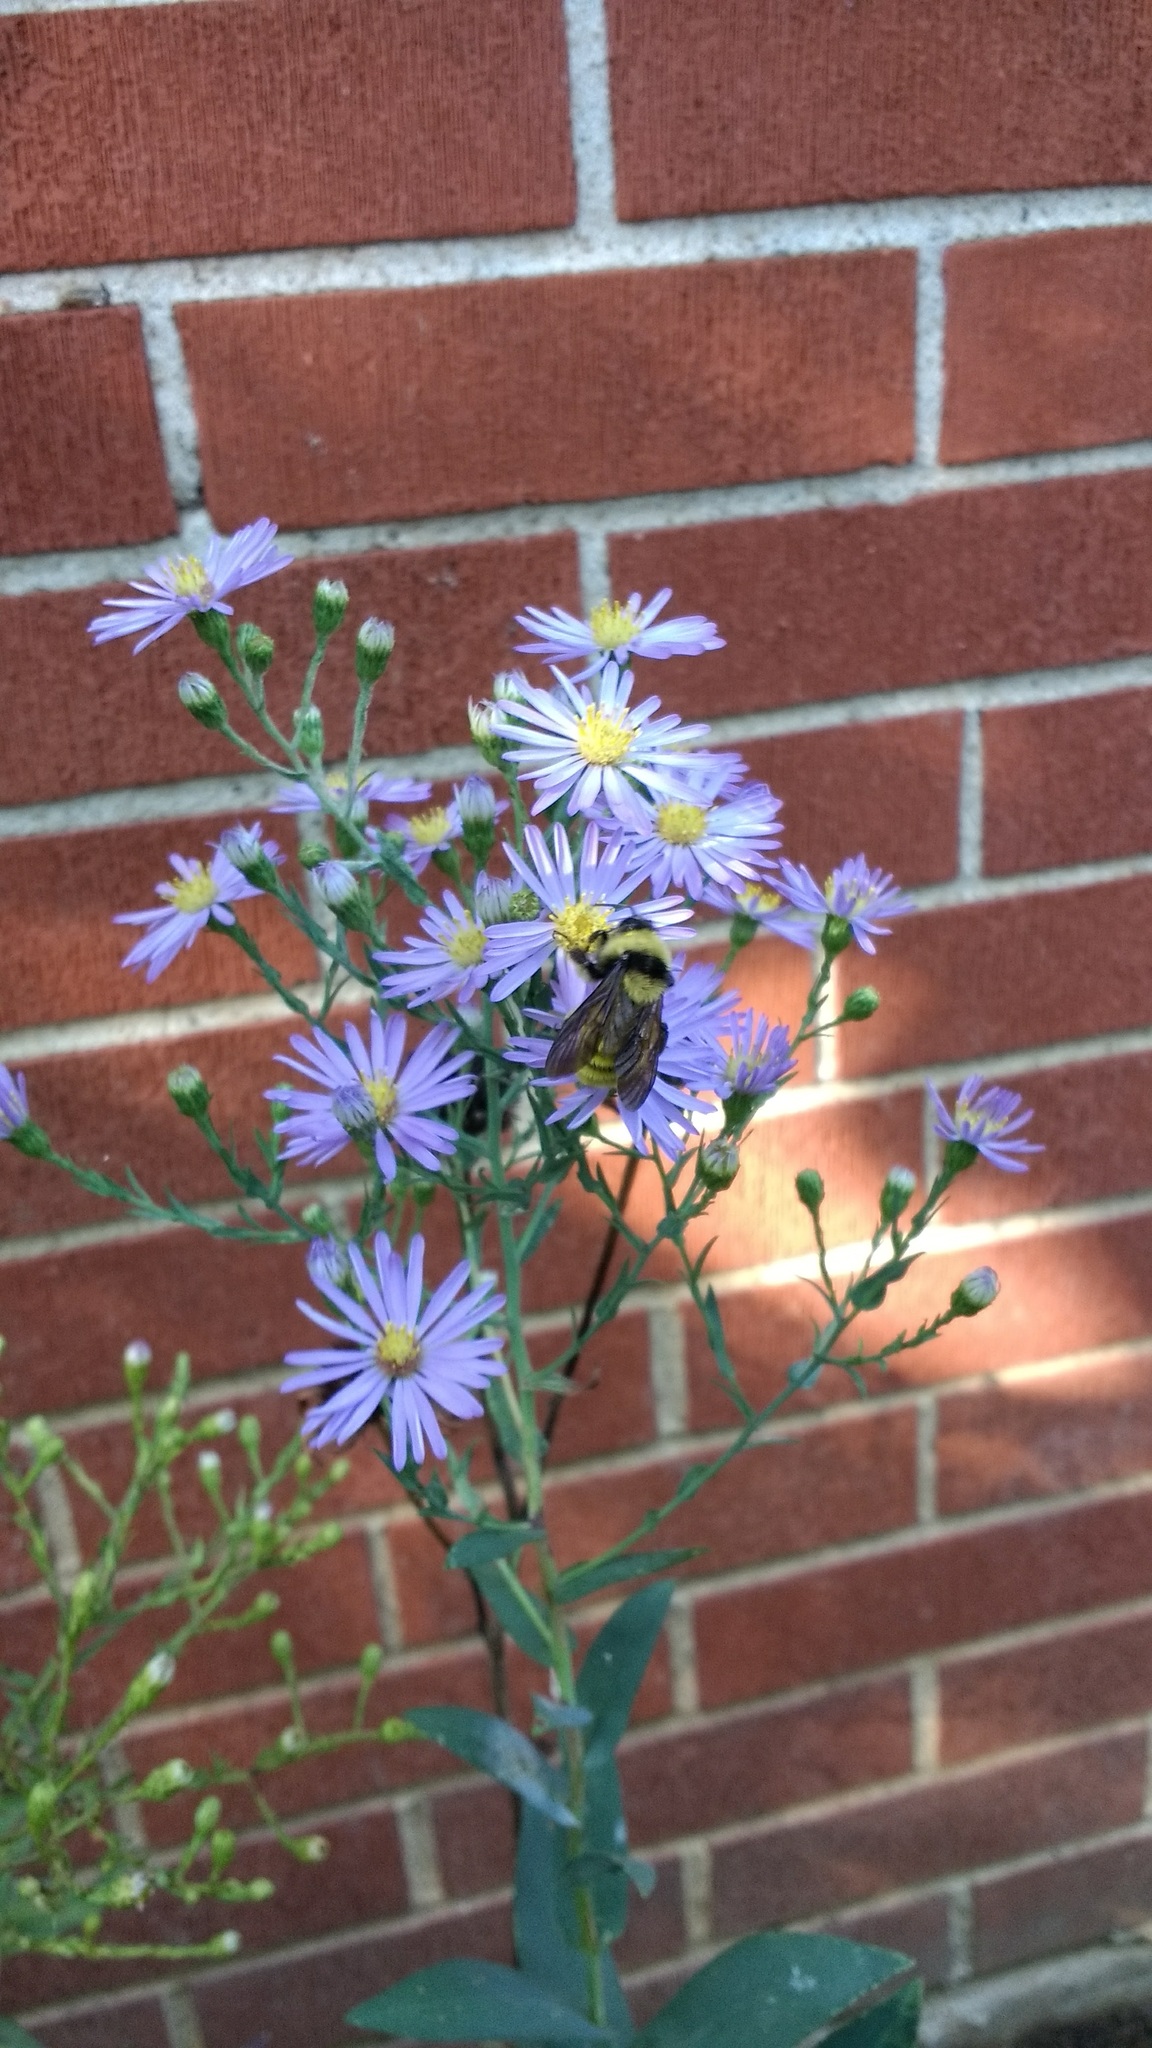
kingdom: Animalia
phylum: Arthropoda
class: Insecta
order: Hymenoptera
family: Apidae
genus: Bombus
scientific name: Bombus pensylvanicus
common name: Bumble bee
